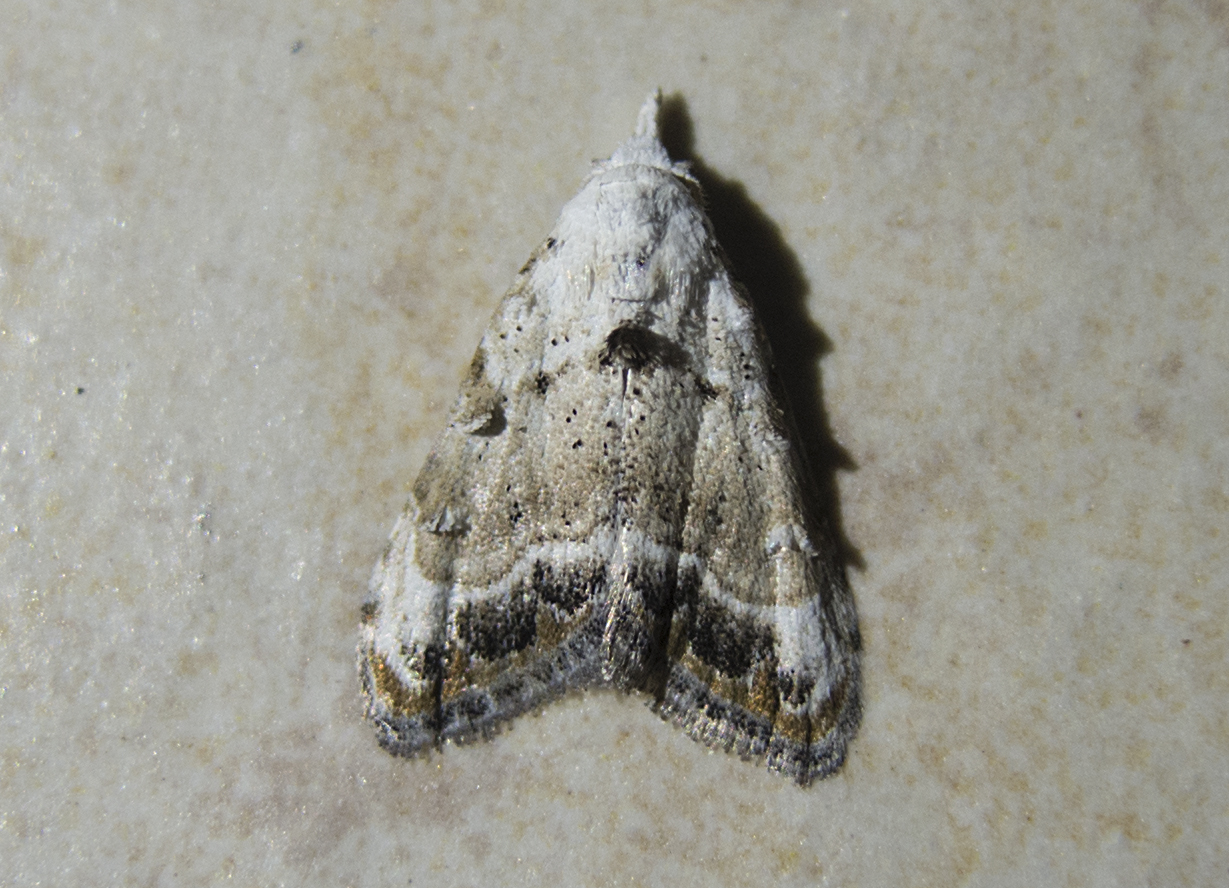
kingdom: Animalia
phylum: Arthropoda
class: Insecta
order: Lepidoptera
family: Nolidae
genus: Nola
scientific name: Nola chlamitulalis
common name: Jersey black arches
